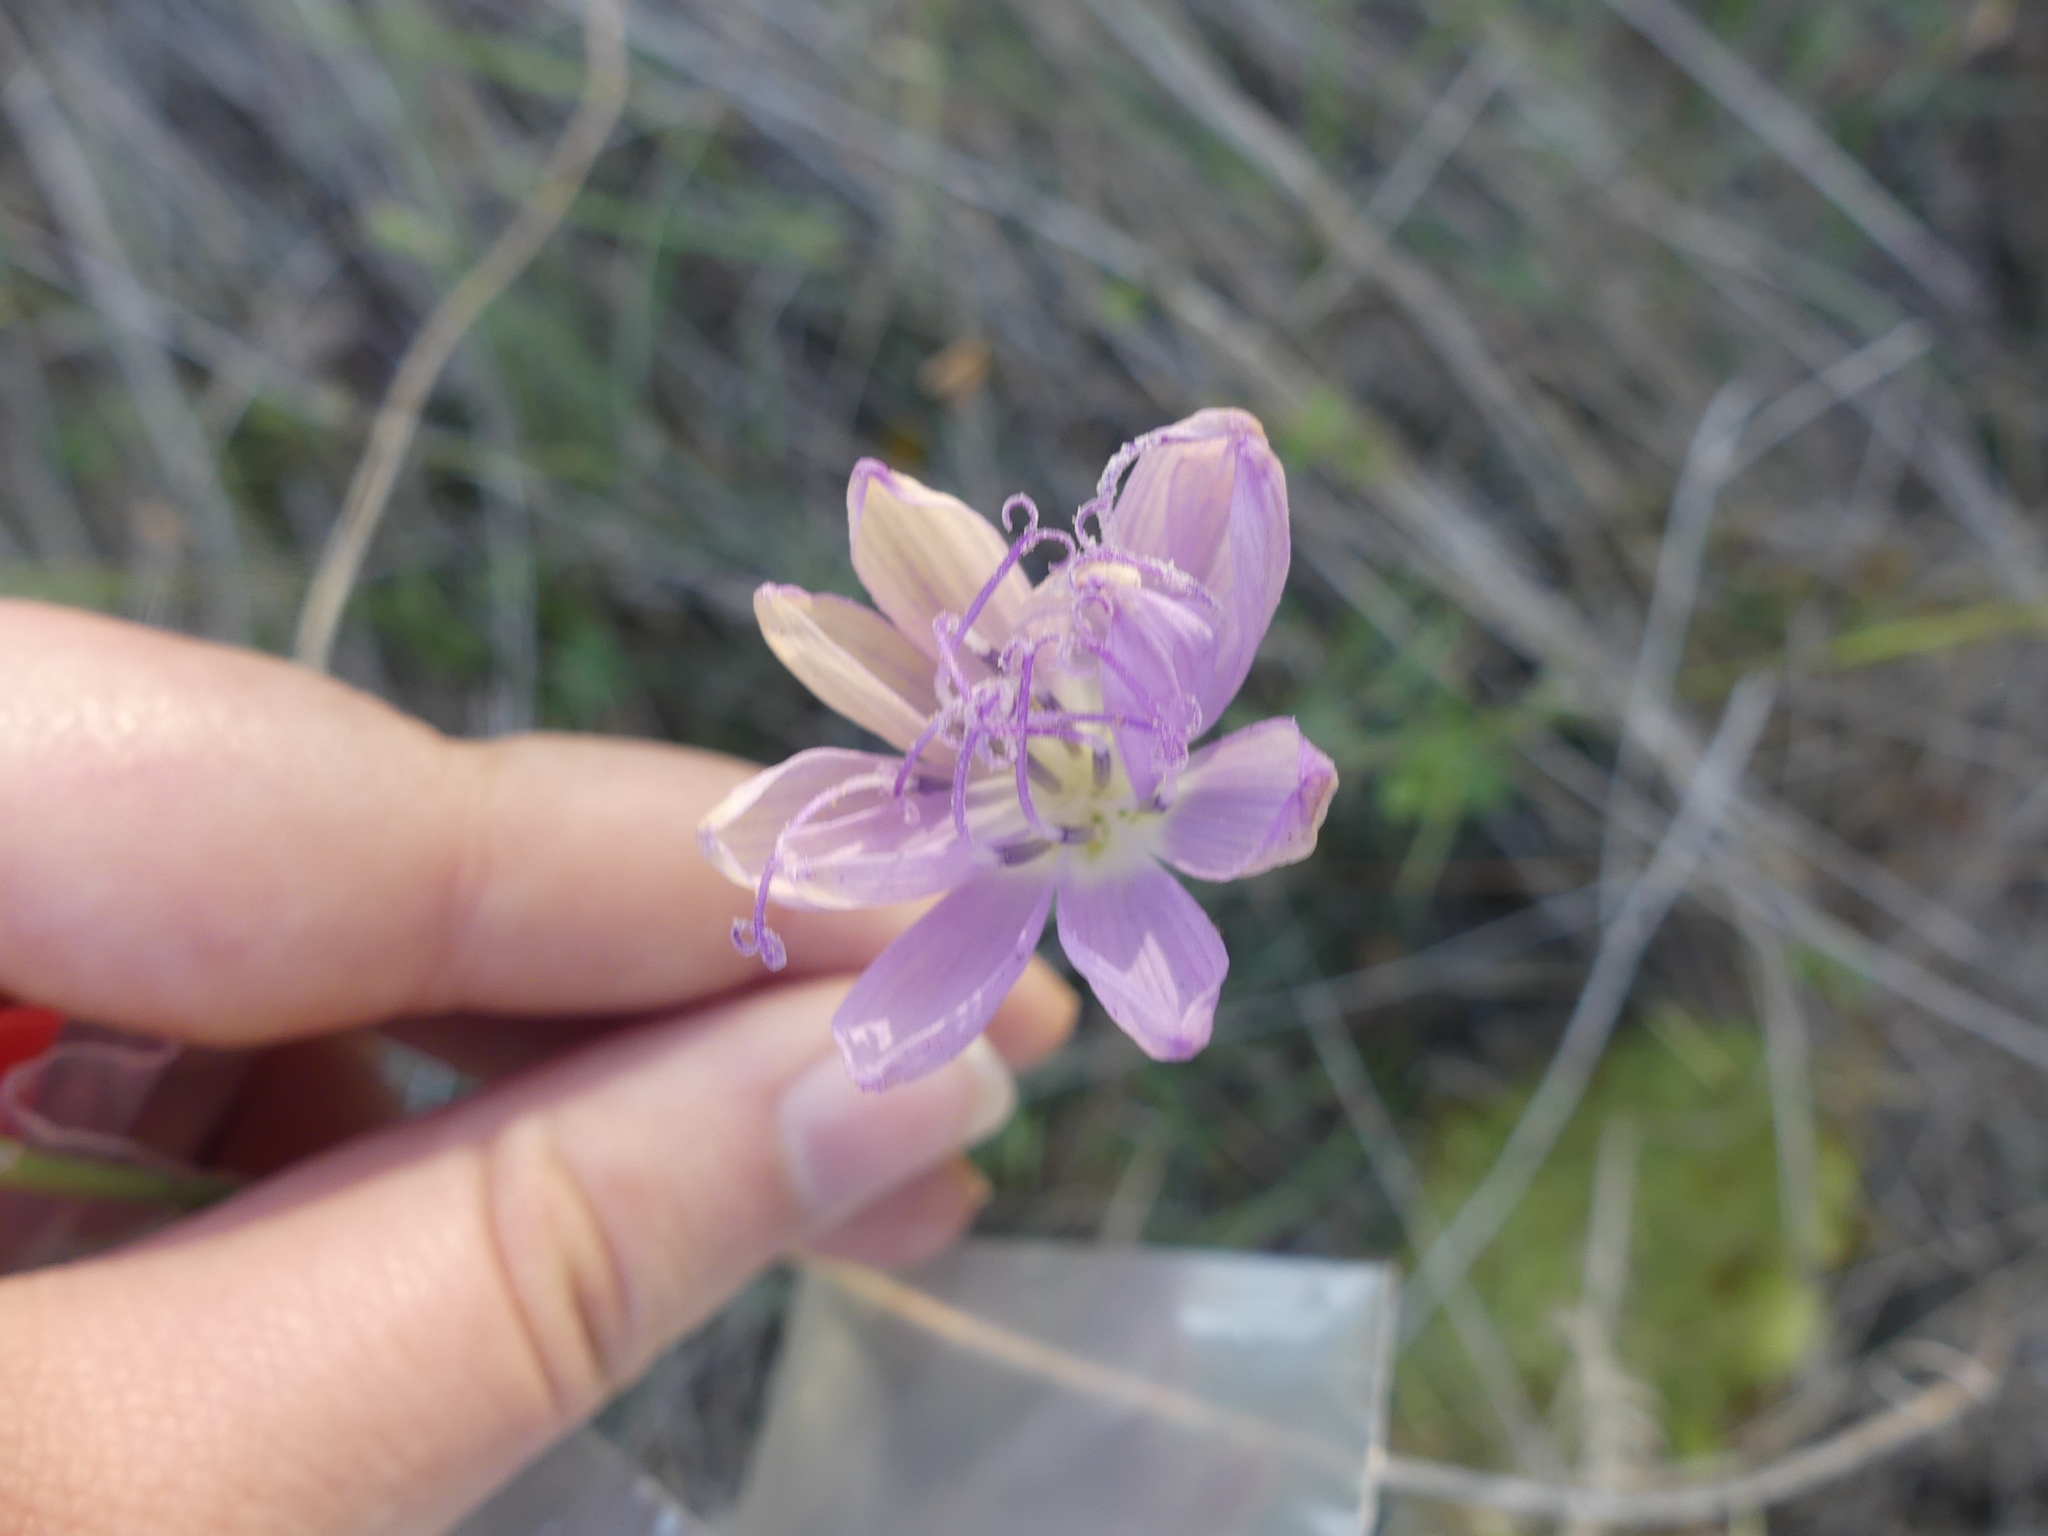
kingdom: Plantae
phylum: Tracheophyta
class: Magnoliopsida
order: Asterales
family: Asteraceae
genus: Lygodesmia
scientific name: Lygodesmia texana
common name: Texas skeleton-plant
